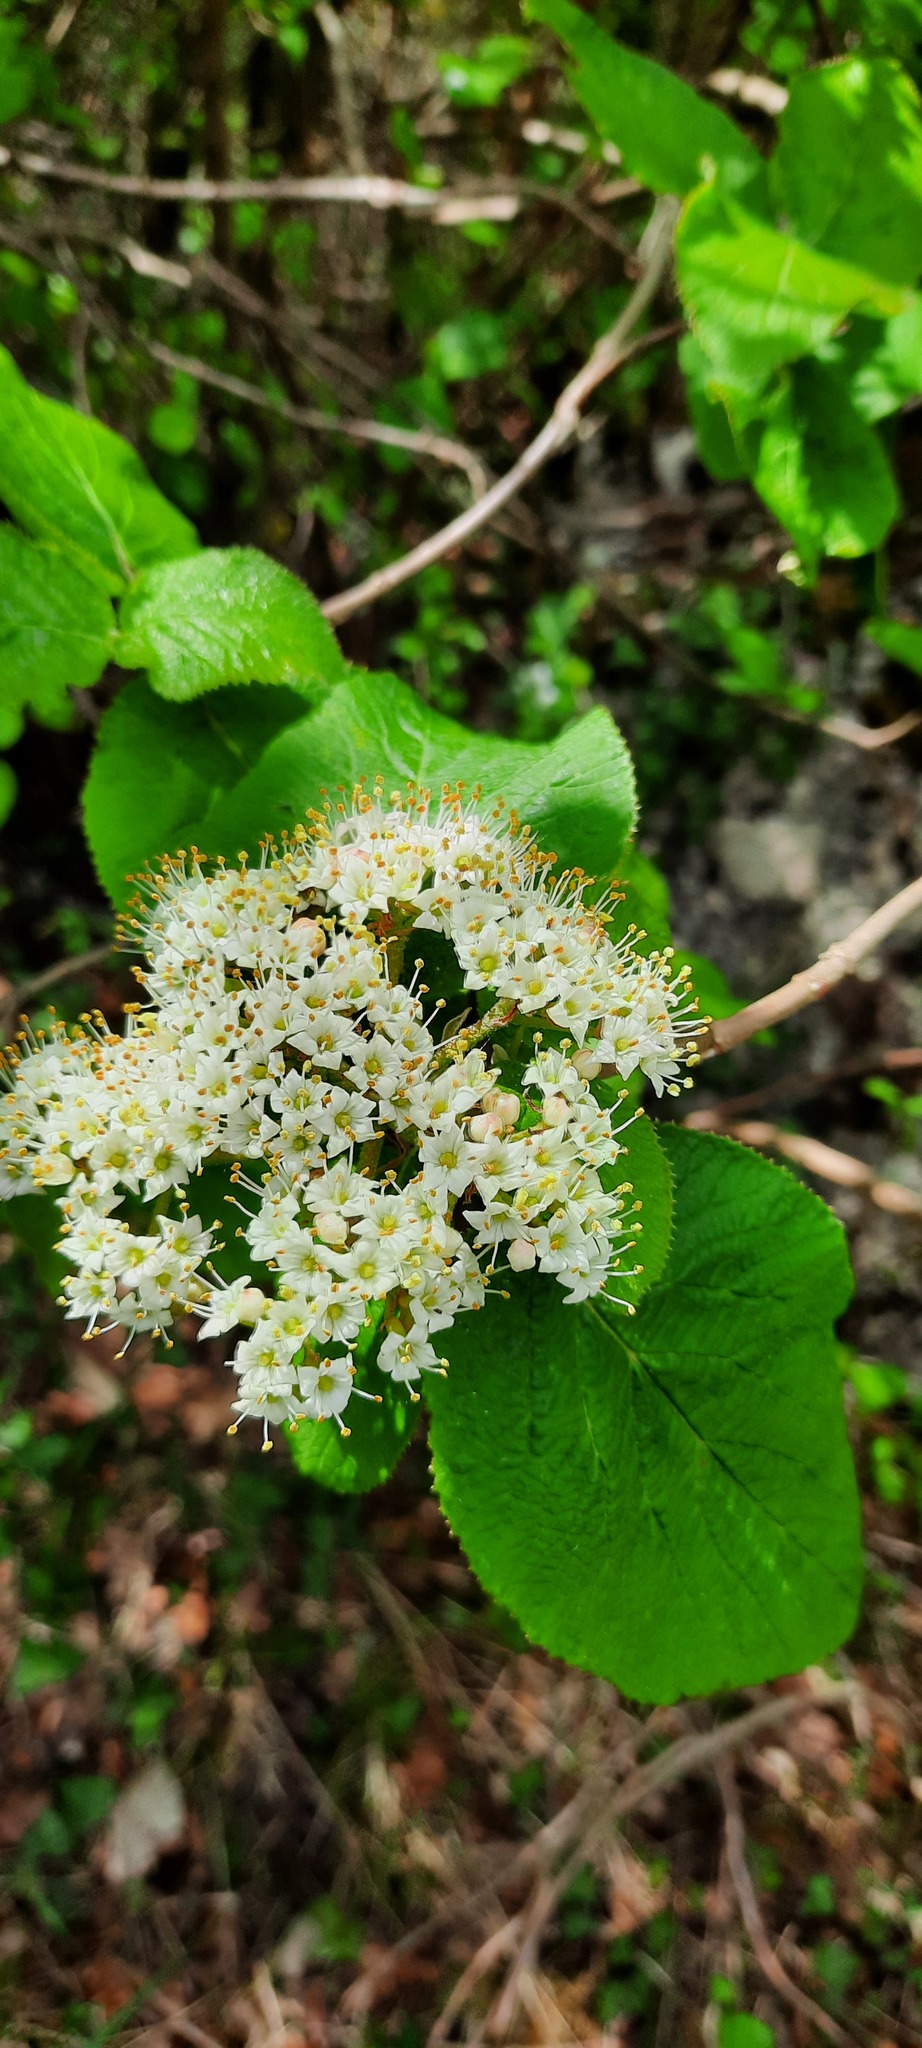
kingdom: Plantae
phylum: Tracheophyta
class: Magnoliopsida
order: Dipsacales
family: Viburnaceae
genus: Viburnum
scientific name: Viburnum lantana
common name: Wayfaring tree
